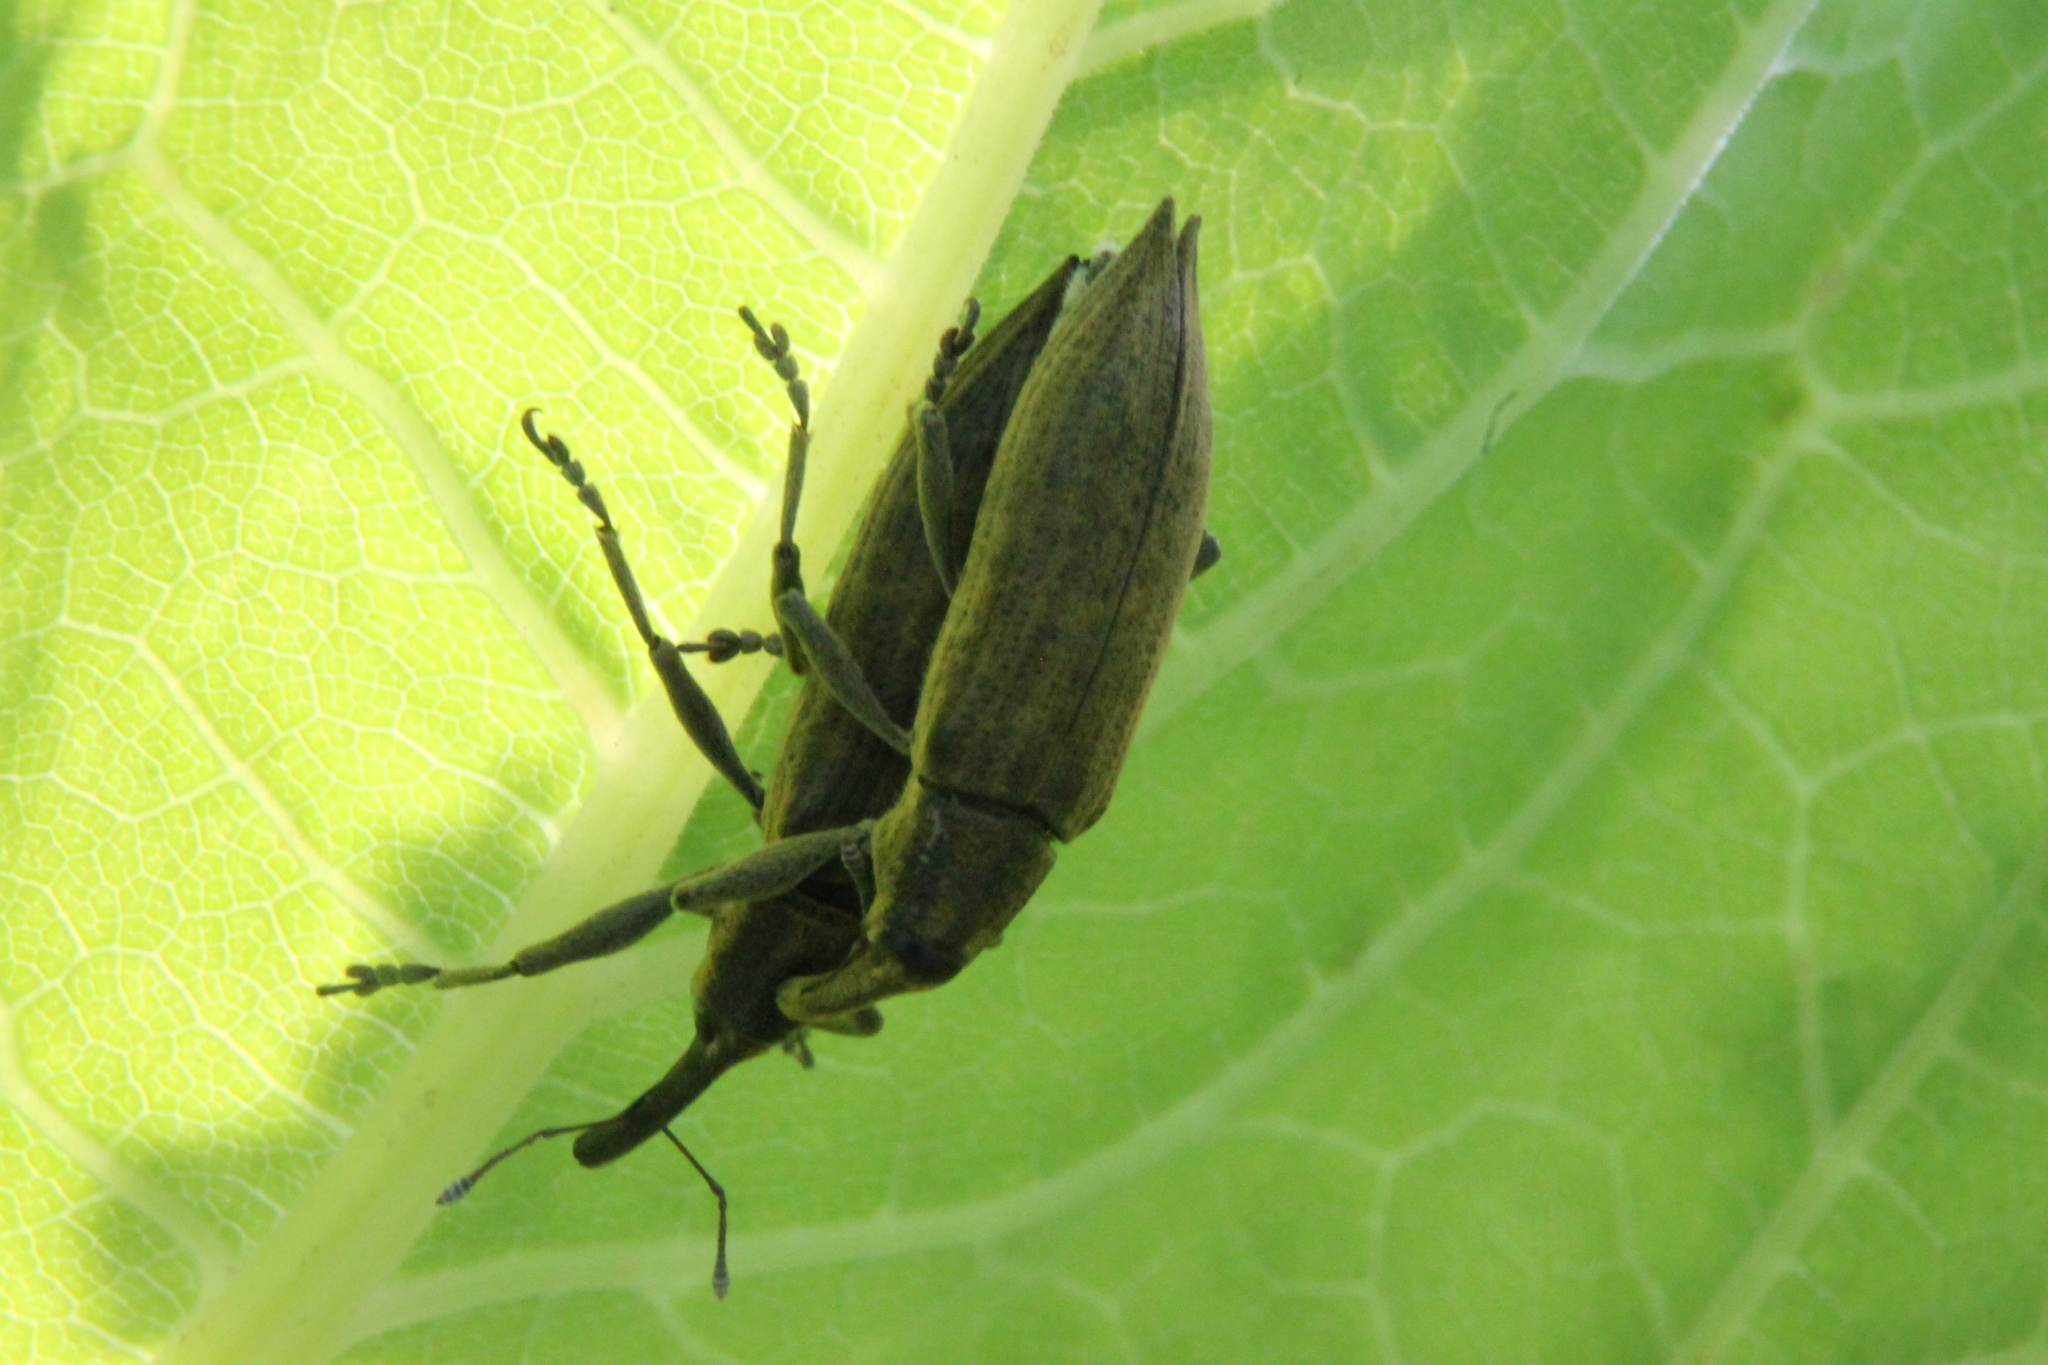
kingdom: Animalia
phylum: Arthropoda
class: Insecta
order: Coleoptera
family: Curculionidae
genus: Lixus
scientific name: Lixus iridis
